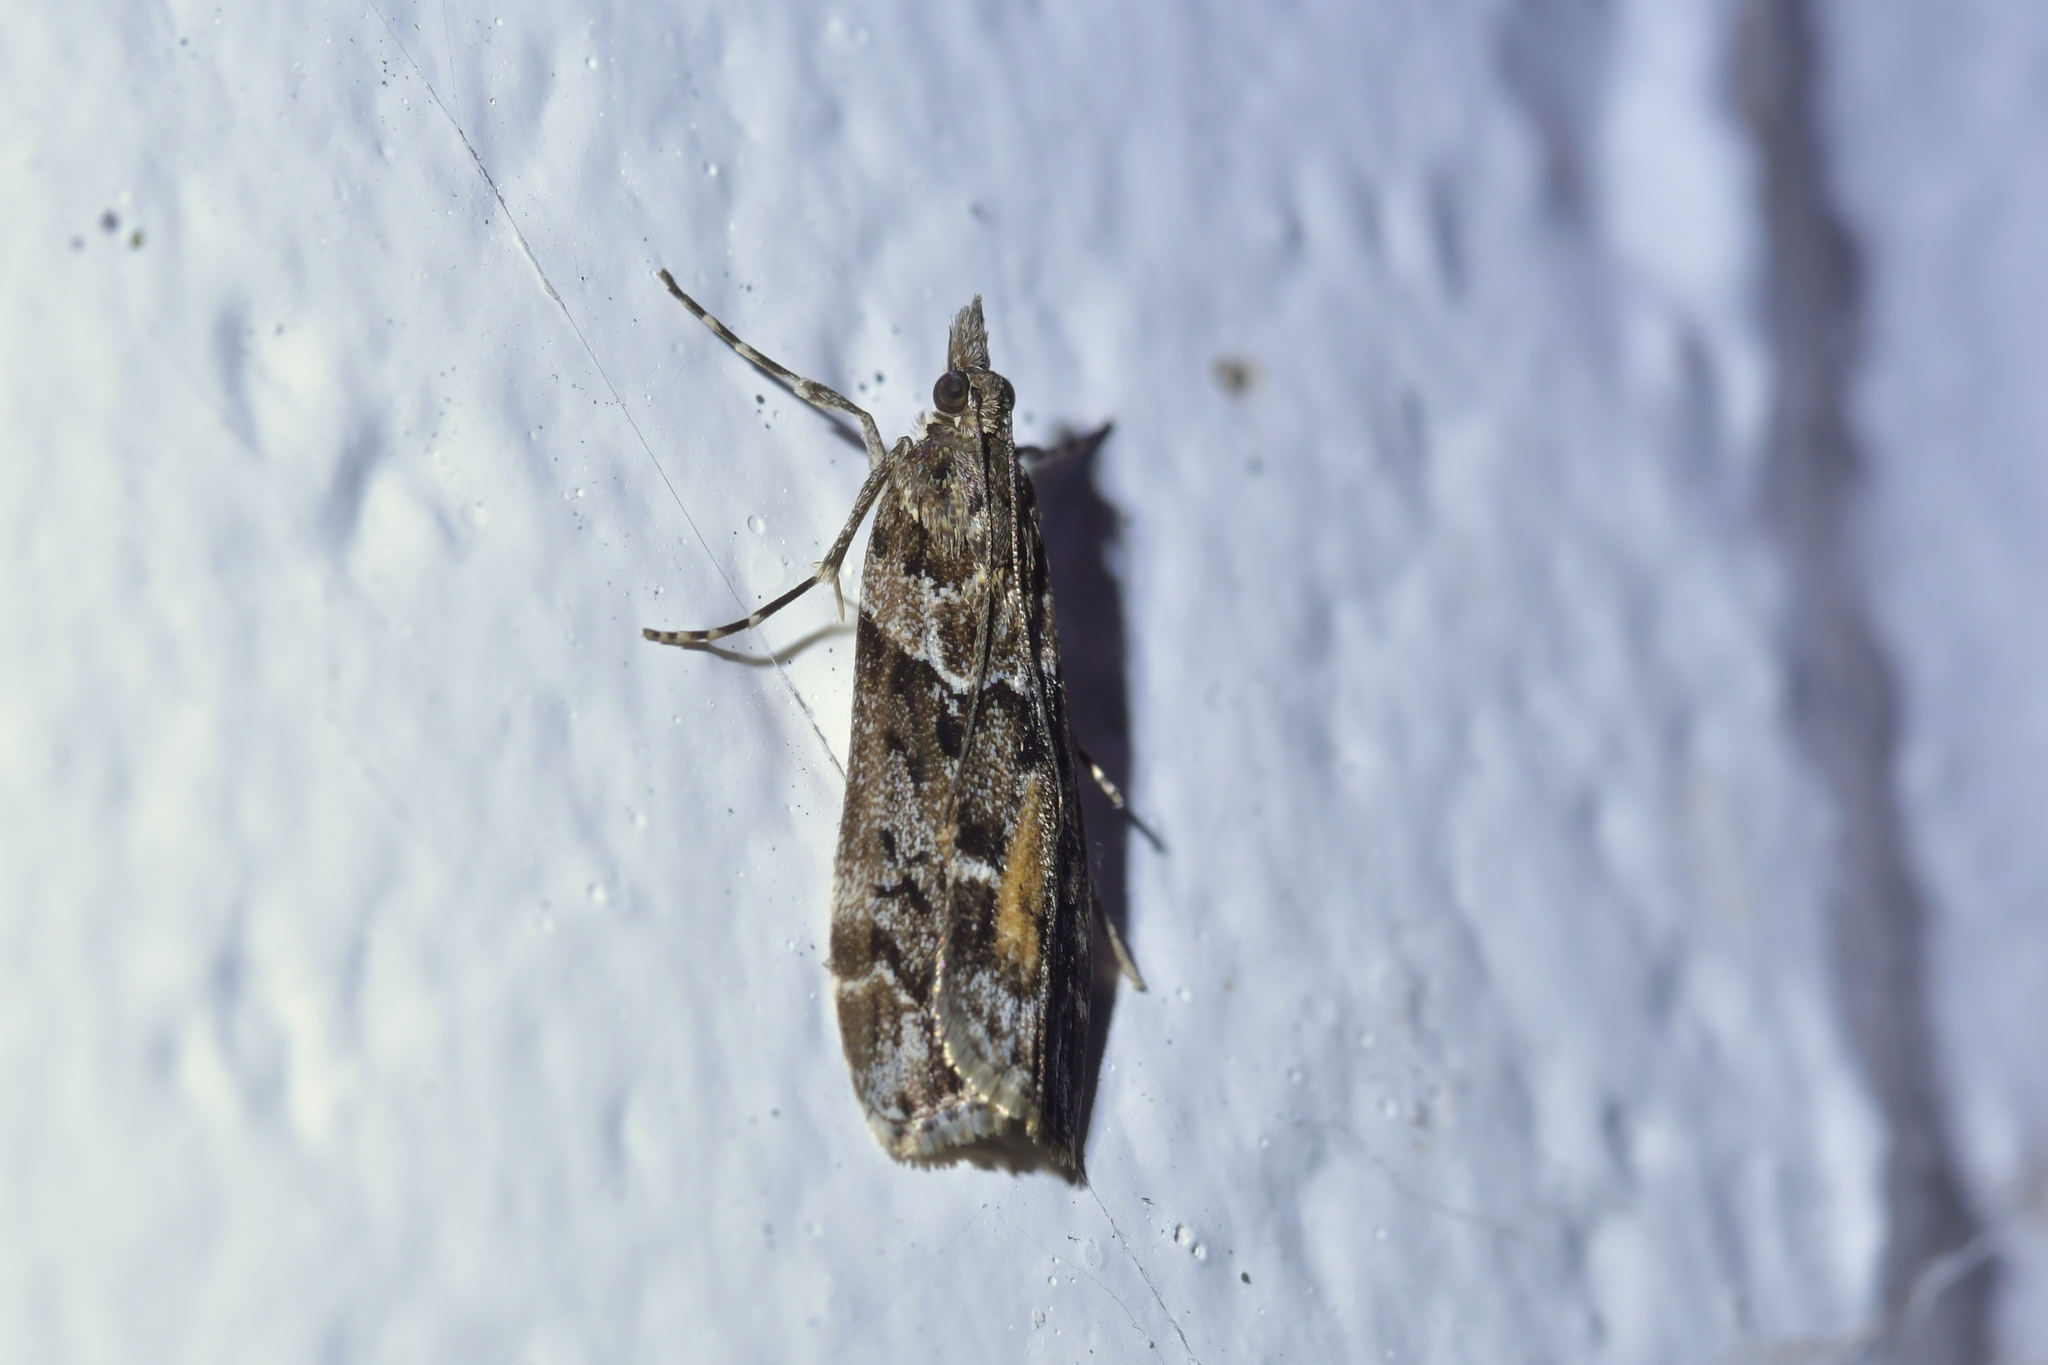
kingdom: Animalia
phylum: Arthropoda
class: Insecta
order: Lepidoptera
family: Crambidae
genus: Eudonia
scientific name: Eudonia submarginalis
